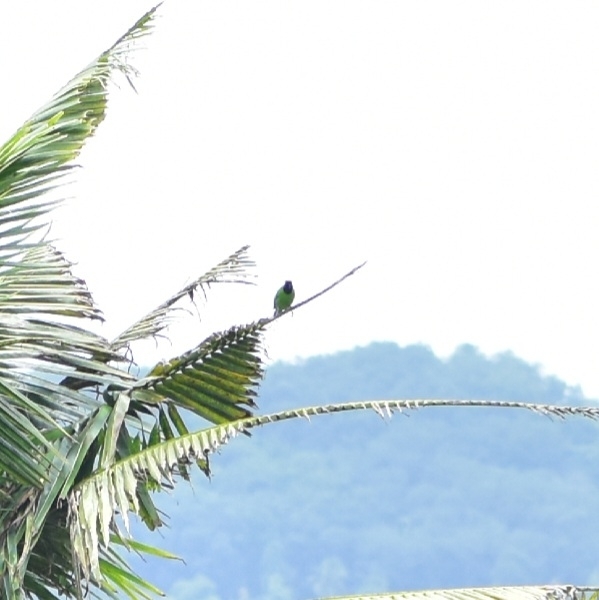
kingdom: Animalia
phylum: Chordata
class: Aves
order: Passeriformes
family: Chloropseidae
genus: Chloropsis
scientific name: Chloropsis aurifrons
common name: Golden-fronted leafbird
